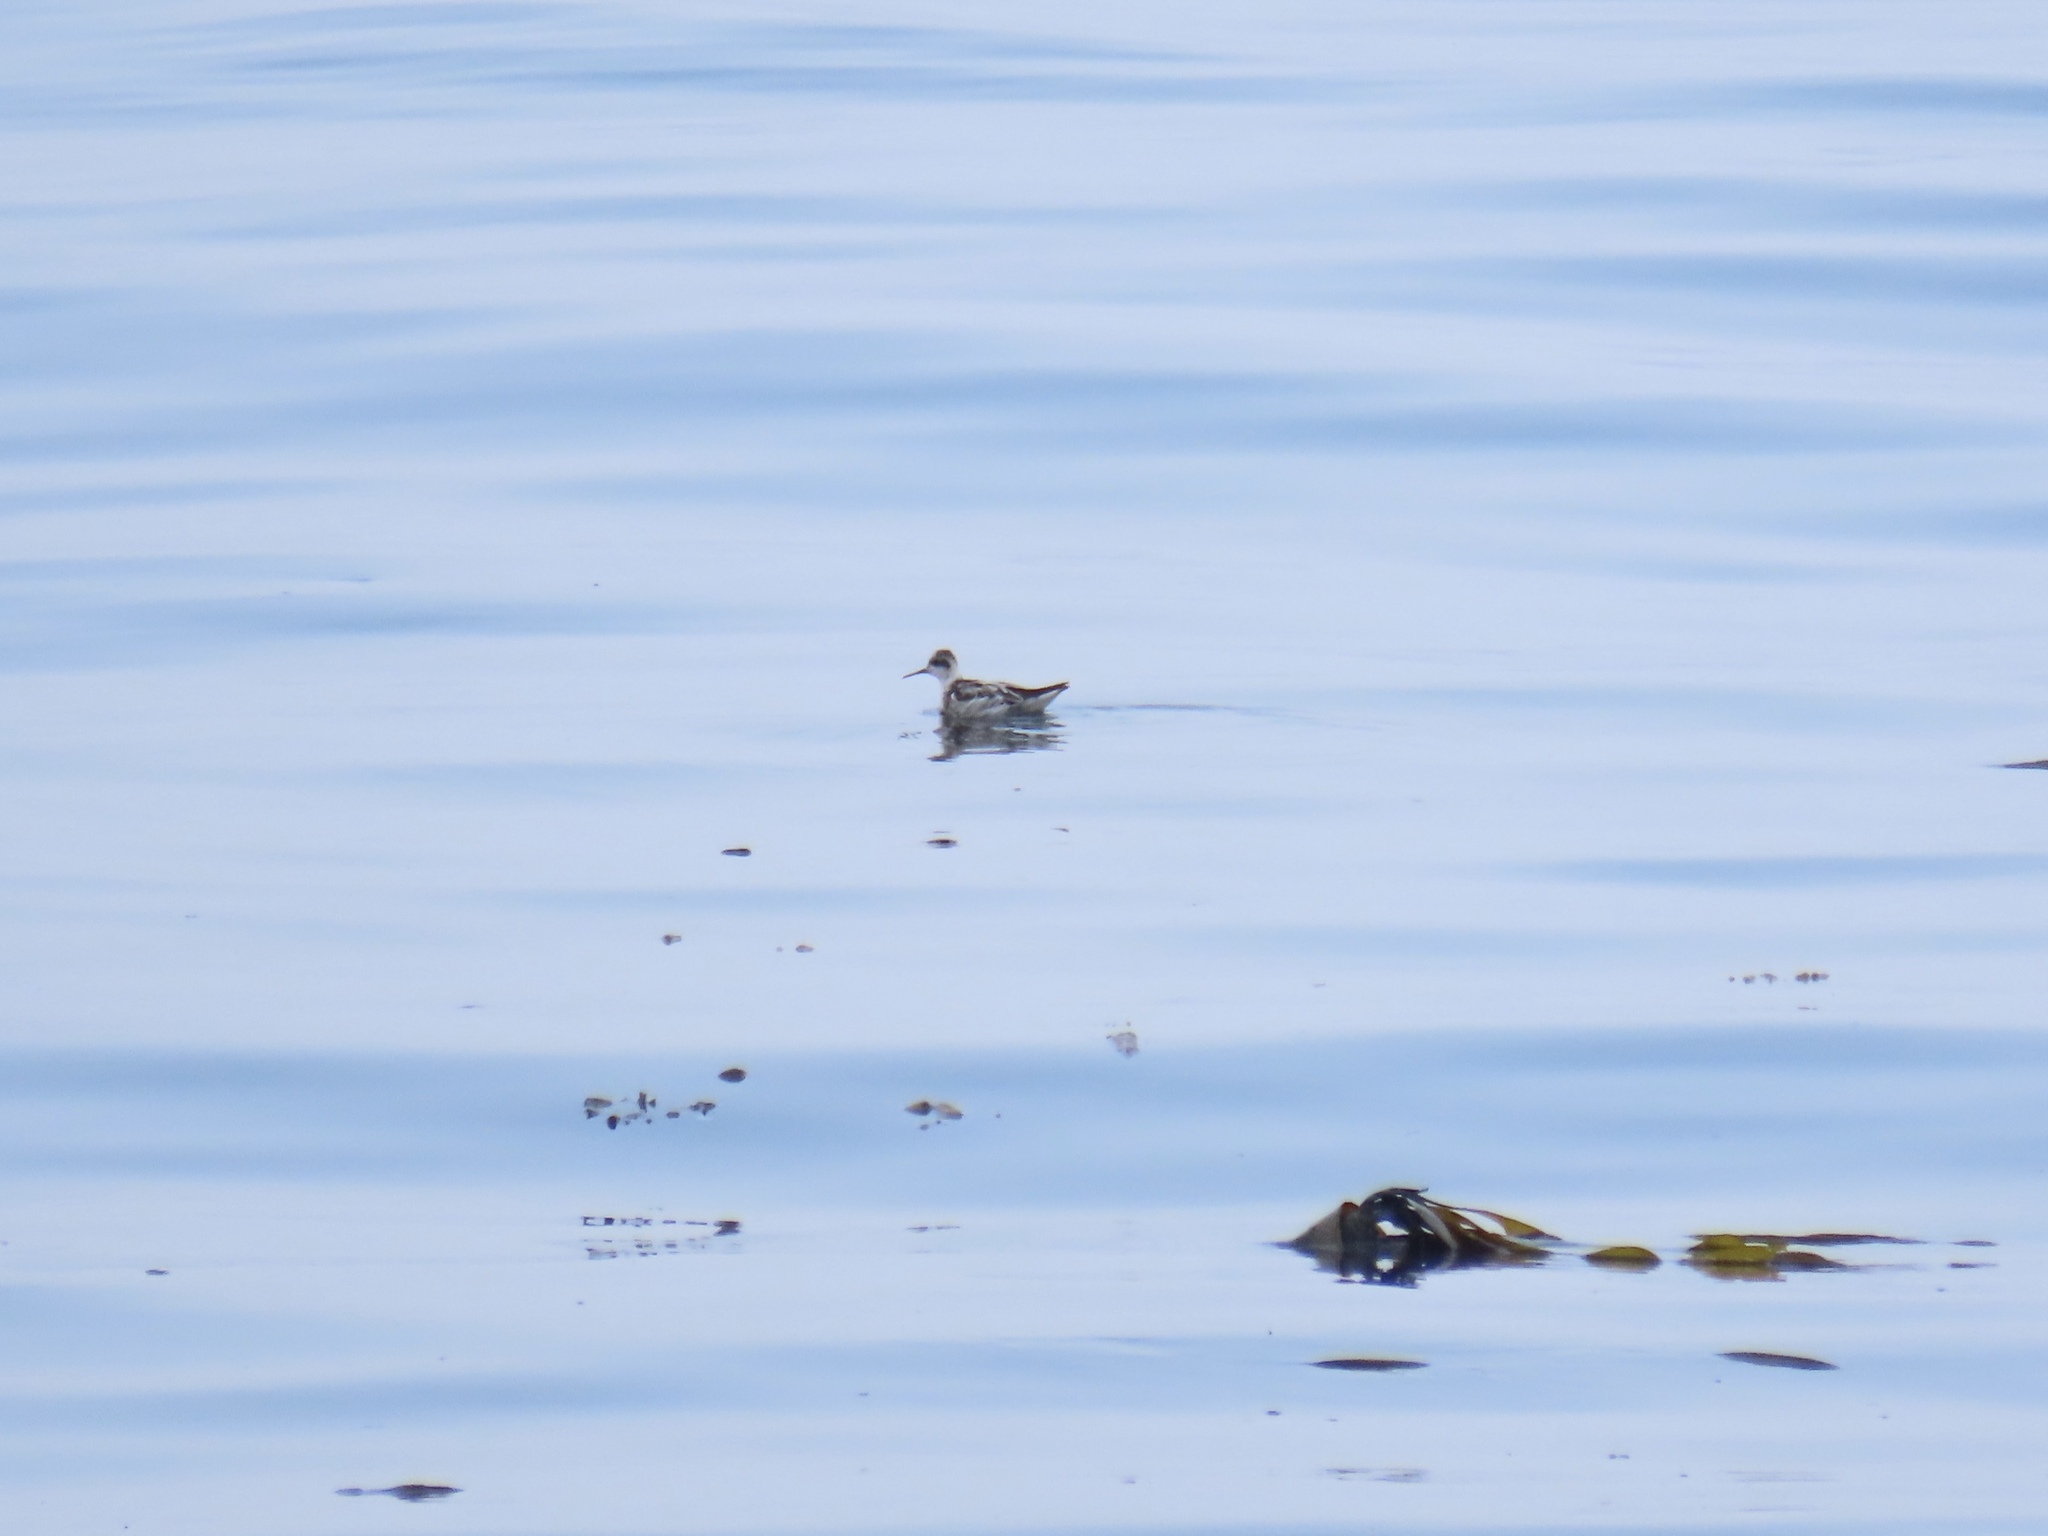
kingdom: Animalia
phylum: Chordata
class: Aves
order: Charadriiformes
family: Scolopacidae
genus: Phalaropus
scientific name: Phalaropus lobatus
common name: Red-necked phalarope
